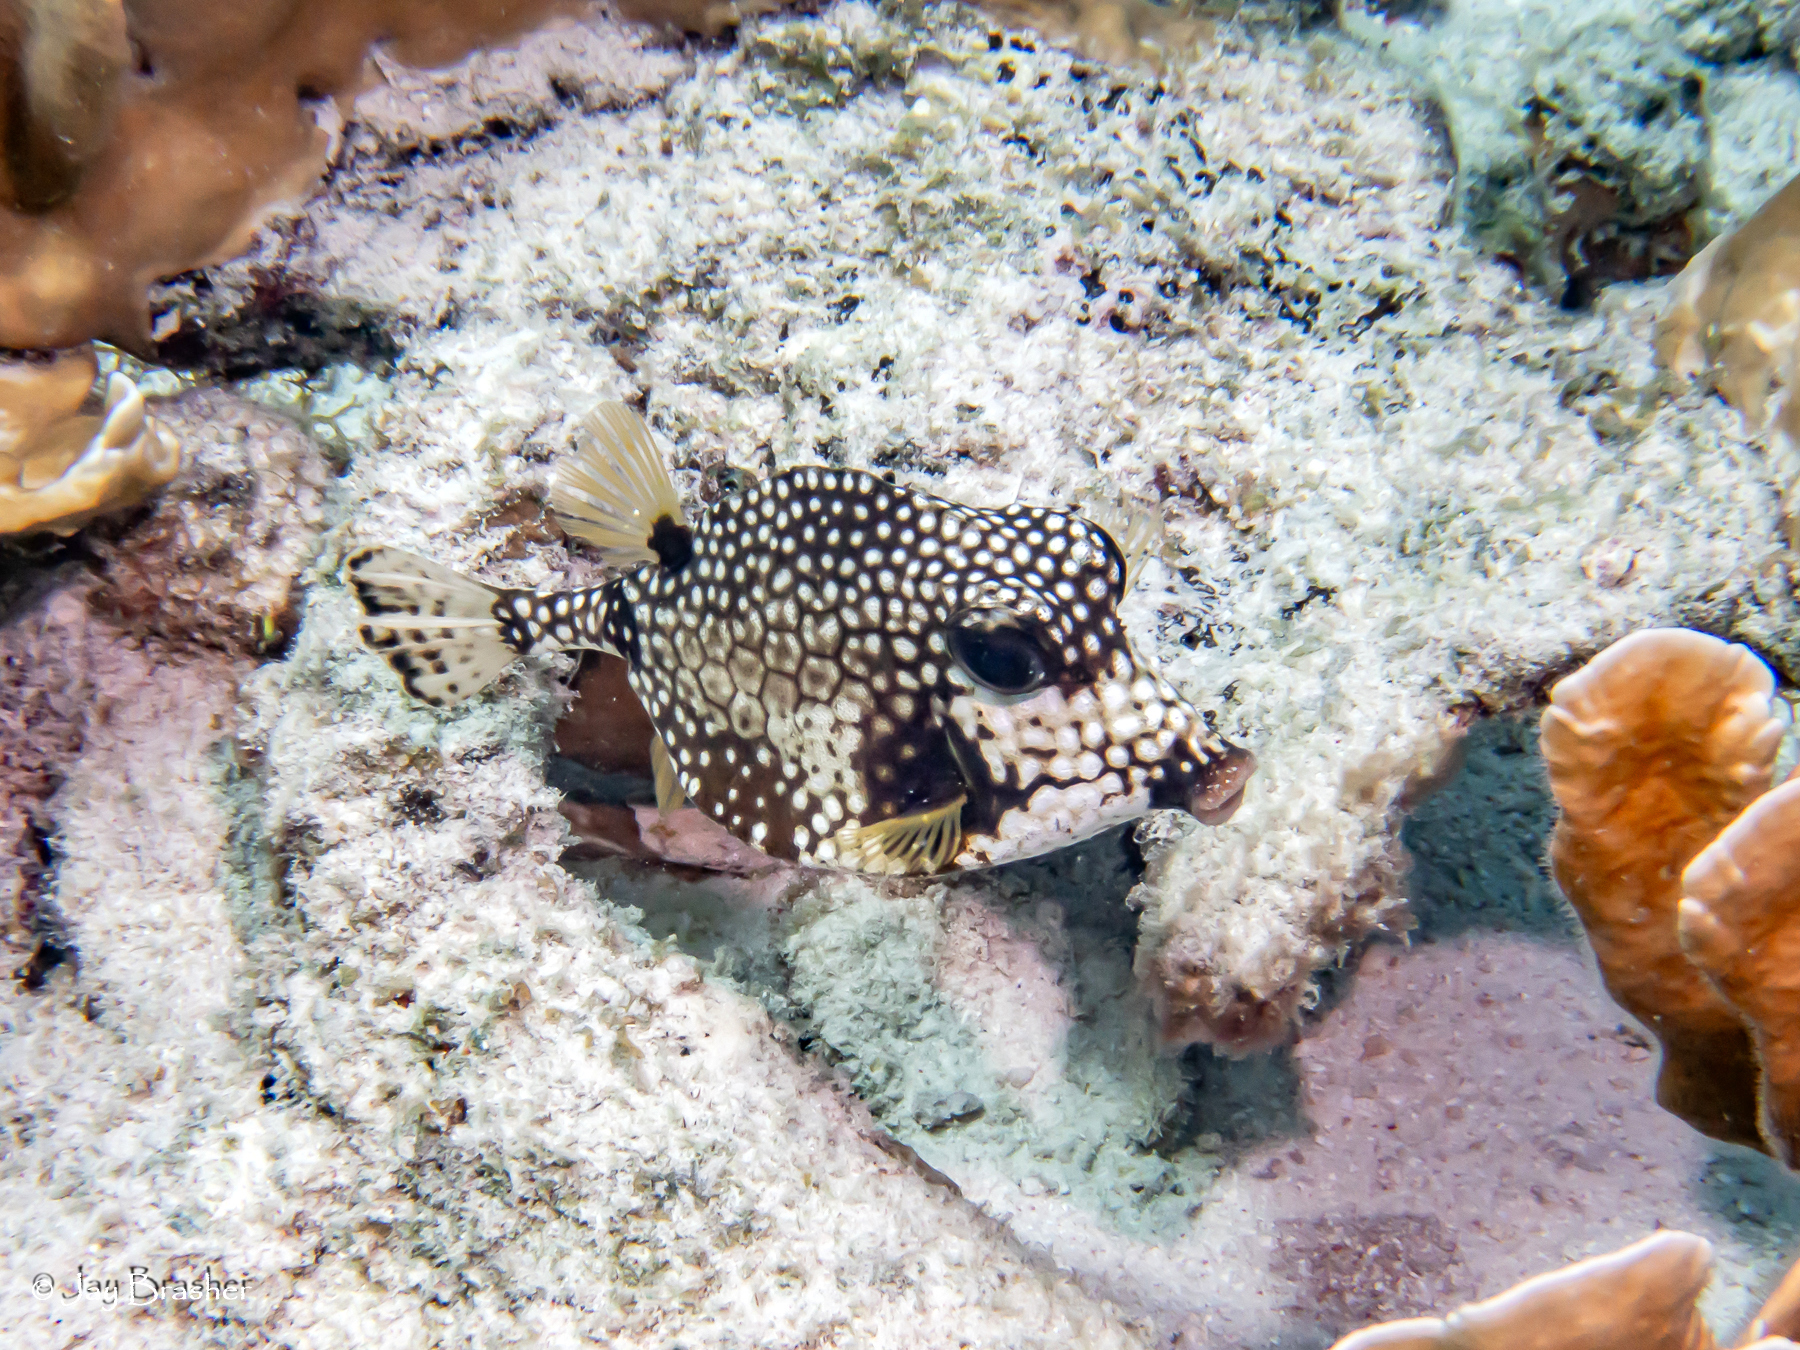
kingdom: Animalia
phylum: Chordata
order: Tetraodontiformes
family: Ostraciidae
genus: Lactophrys
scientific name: Lactophrys triqueter
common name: Smooth trunkfish
